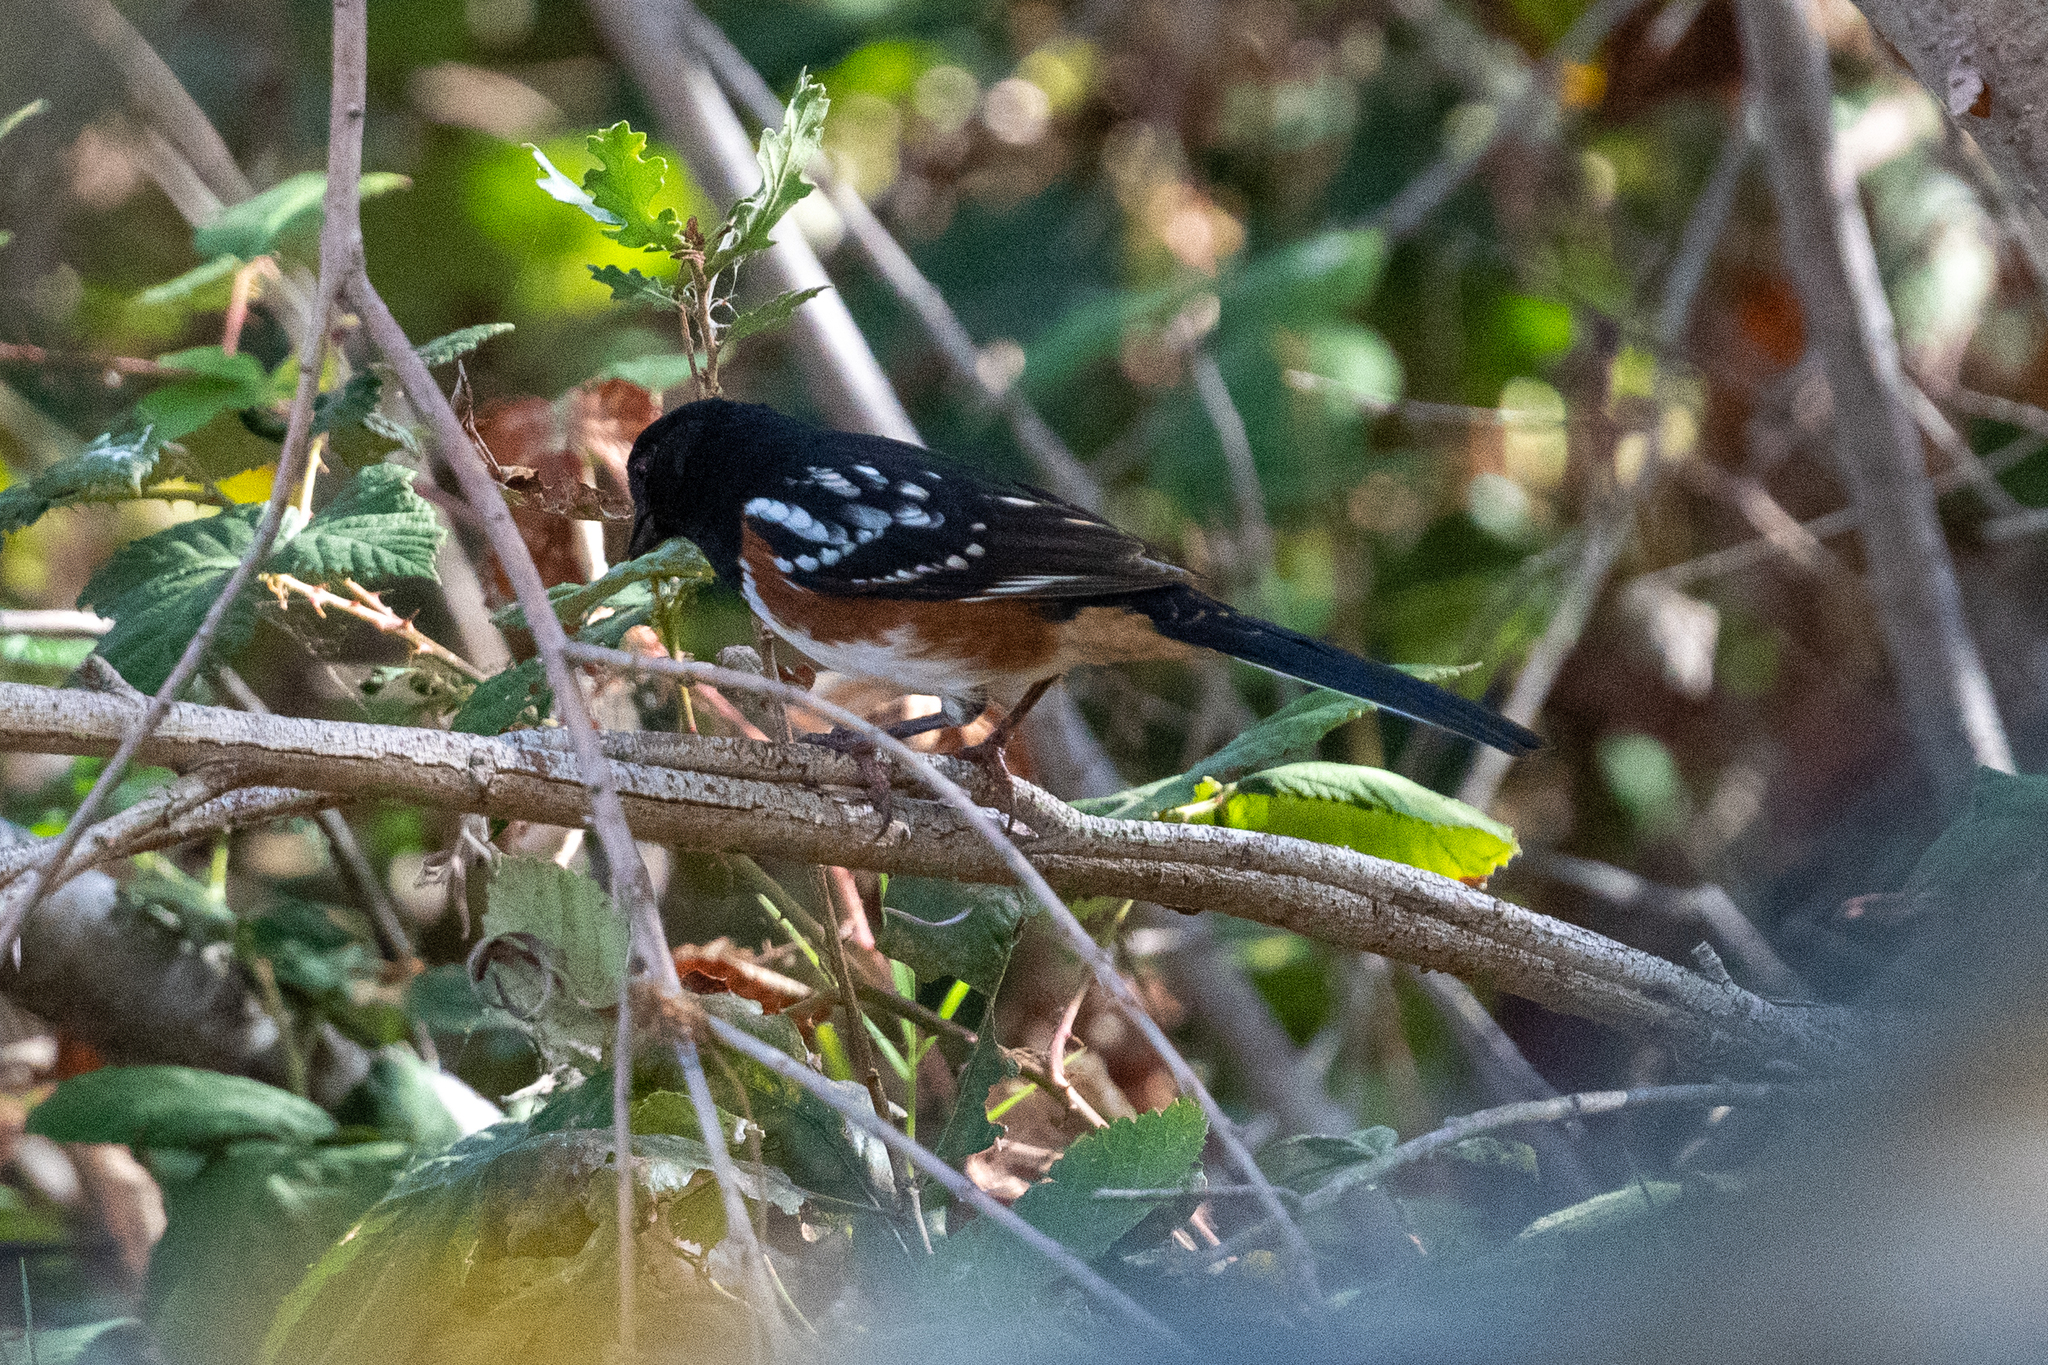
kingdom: Animalia
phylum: Chordata
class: Aves
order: Passeriformes
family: Passerellidae
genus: Pipilo
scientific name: Pipilo maculatus
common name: Spotted towhee
